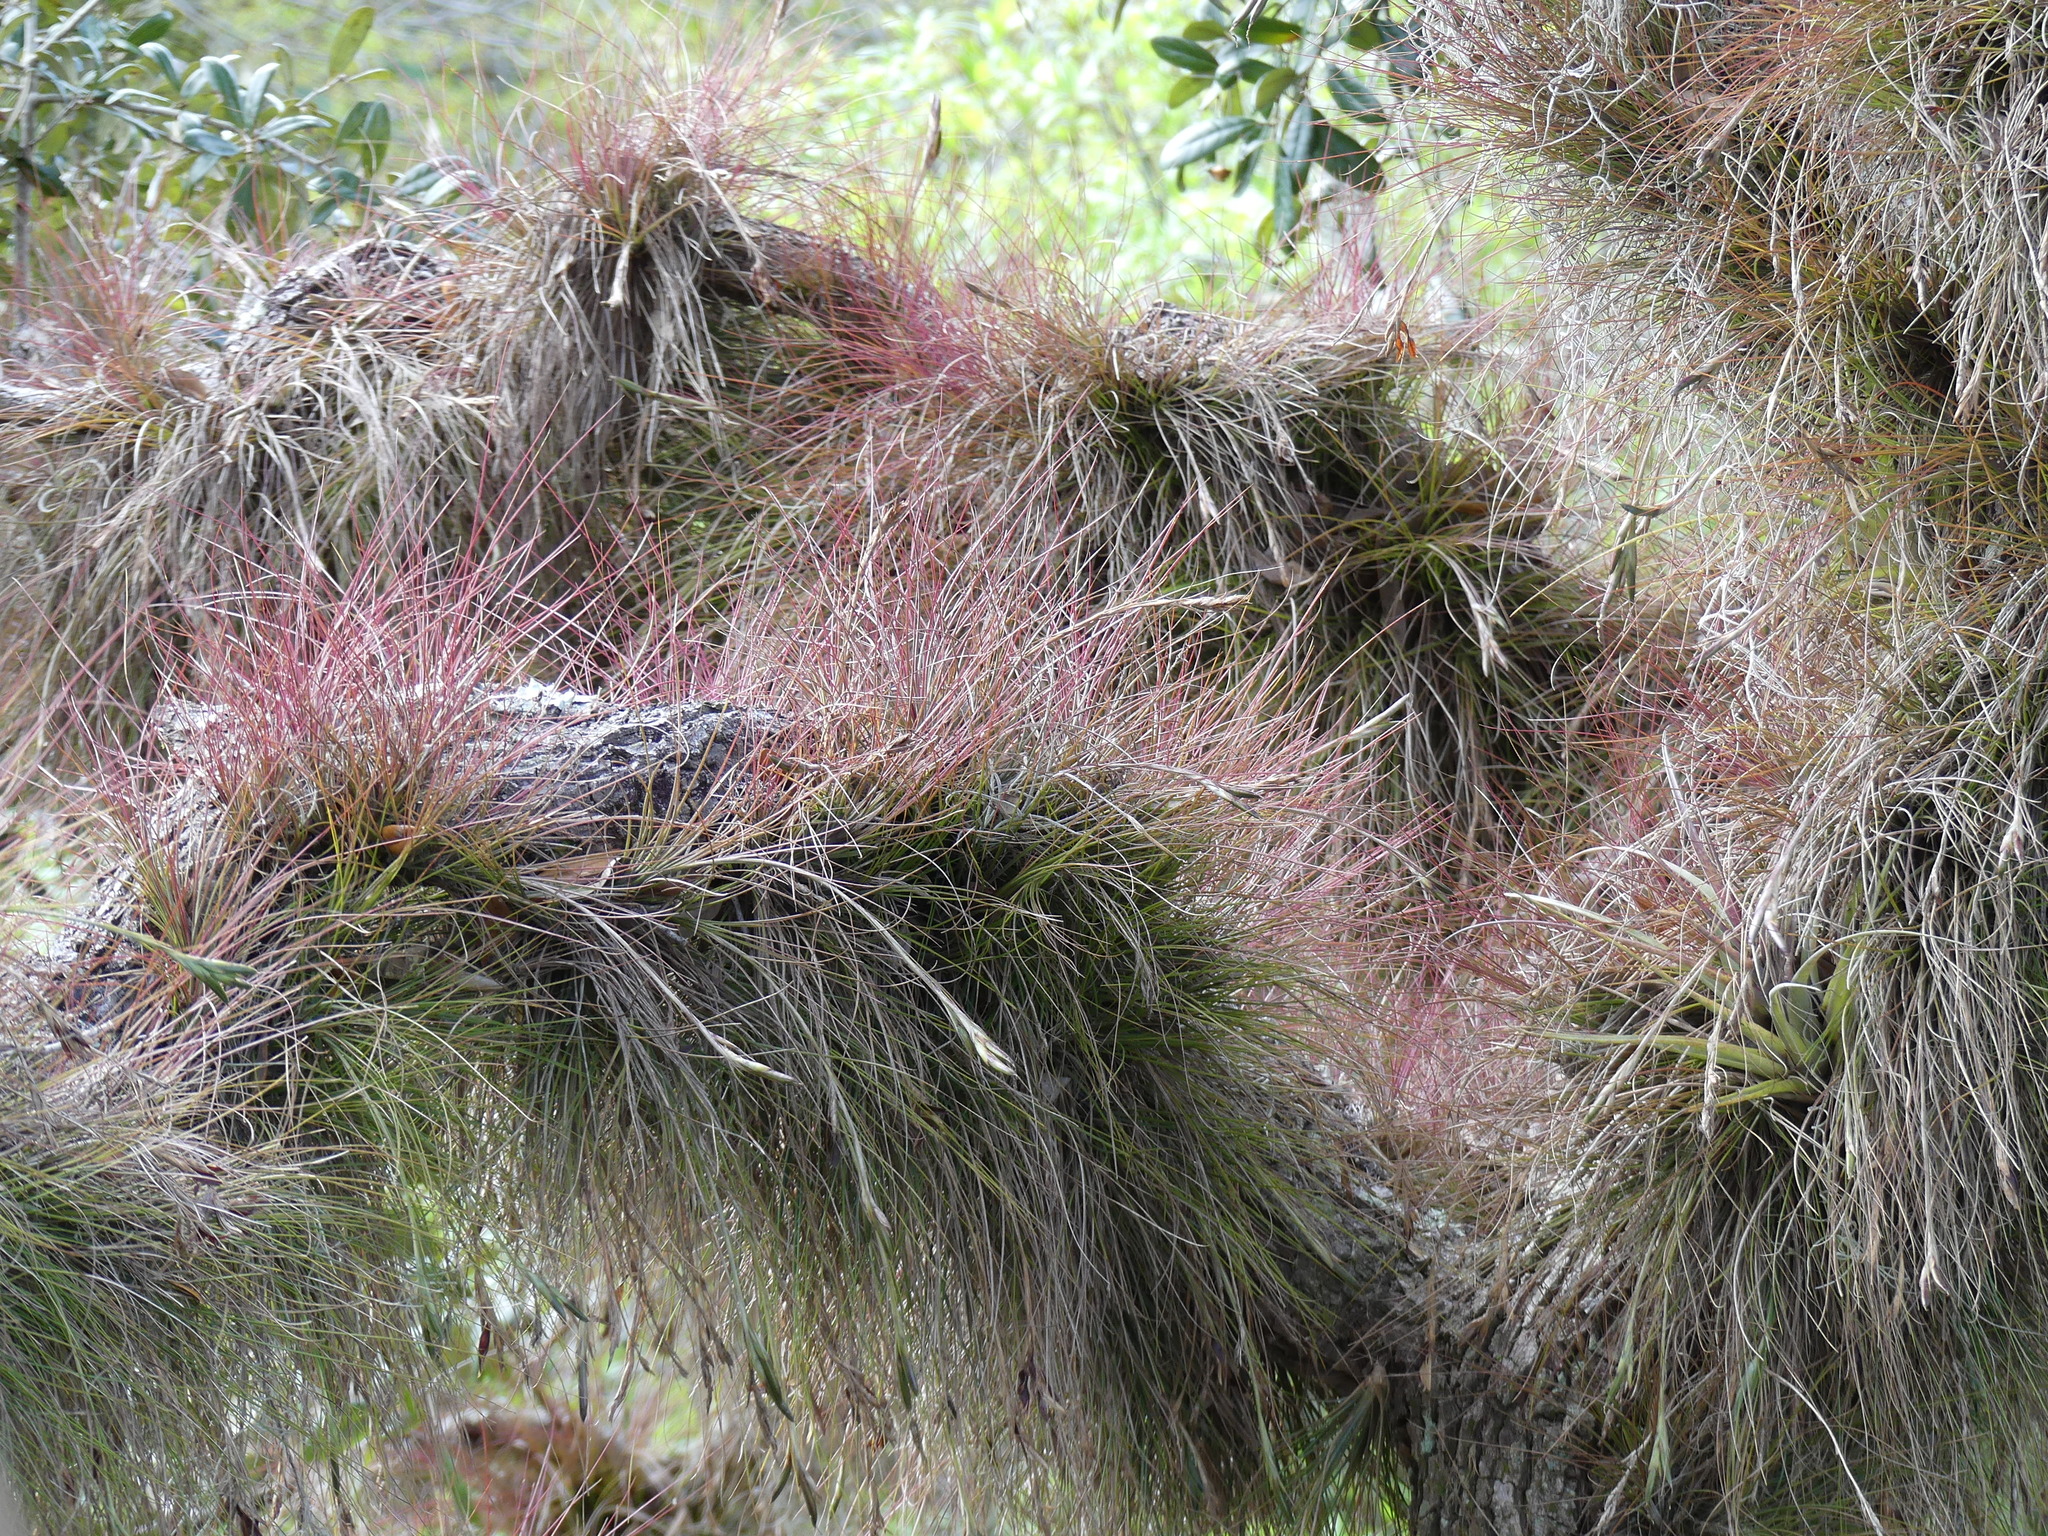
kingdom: Plantae
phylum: Tracheophyta
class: Liliopsida
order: Poales
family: Bromeliaceae
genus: Tillandsia
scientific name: Tillandsia setacea
